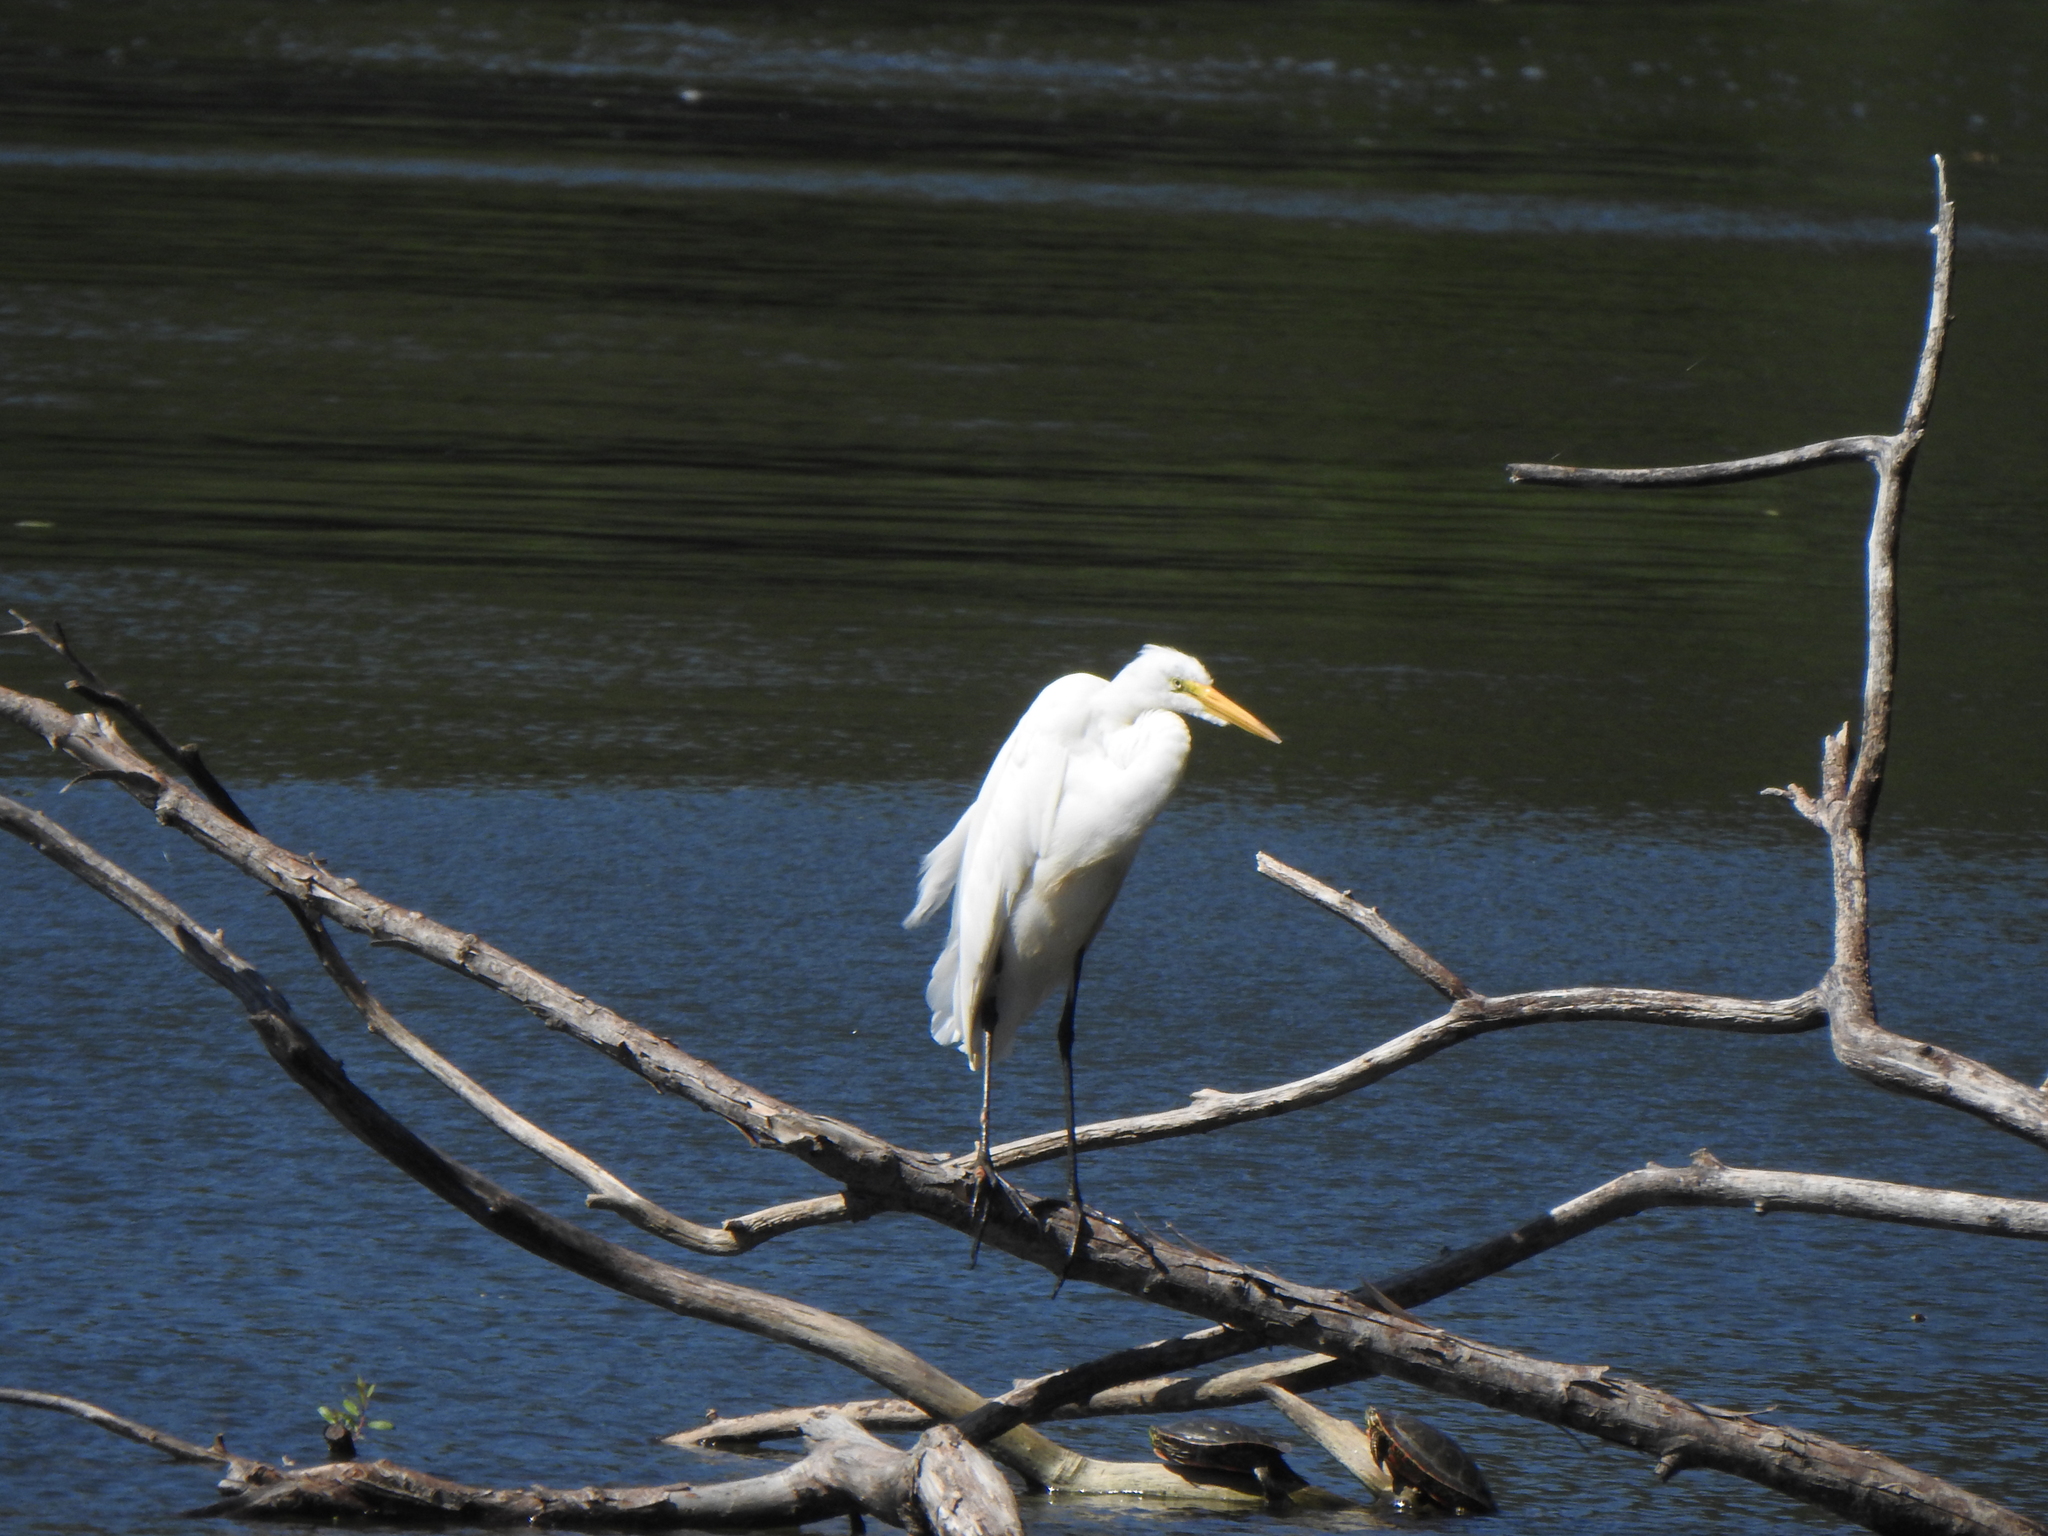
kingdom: Animalia
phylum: Chordata
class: Aves
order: Pelecaniformes
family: Ardeidae
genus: Ardea
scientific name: Ardea alba
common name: Great egret
